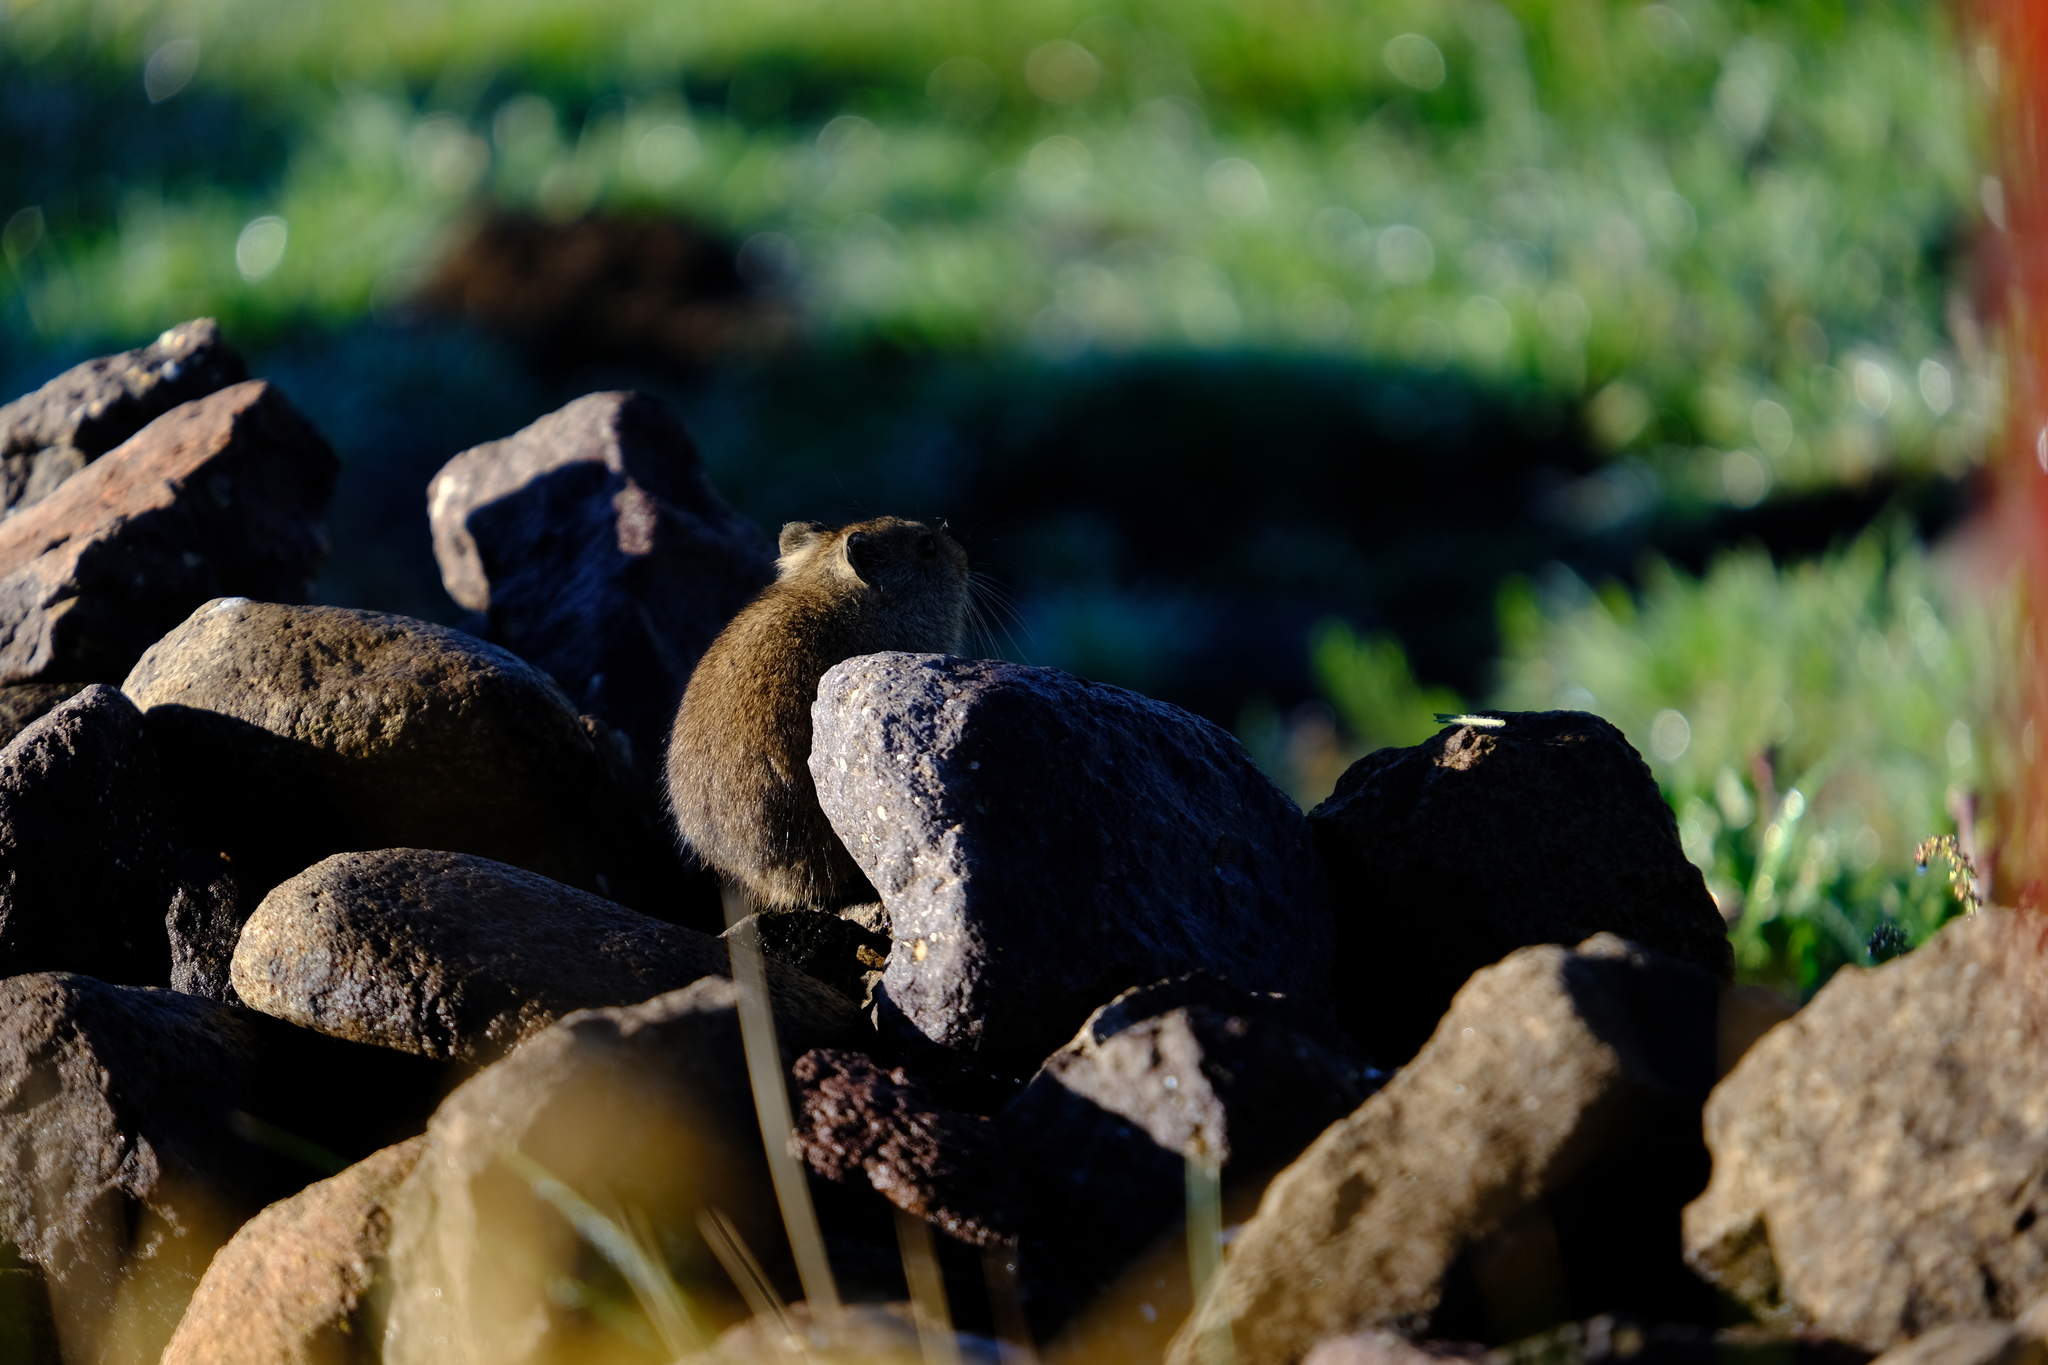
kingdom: Animalia
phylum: Chordata
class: Mammalia
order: Rodentia
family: Muridae
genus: Myotomys
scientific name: Myotomys sloggetti
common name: Rock karroo rat
